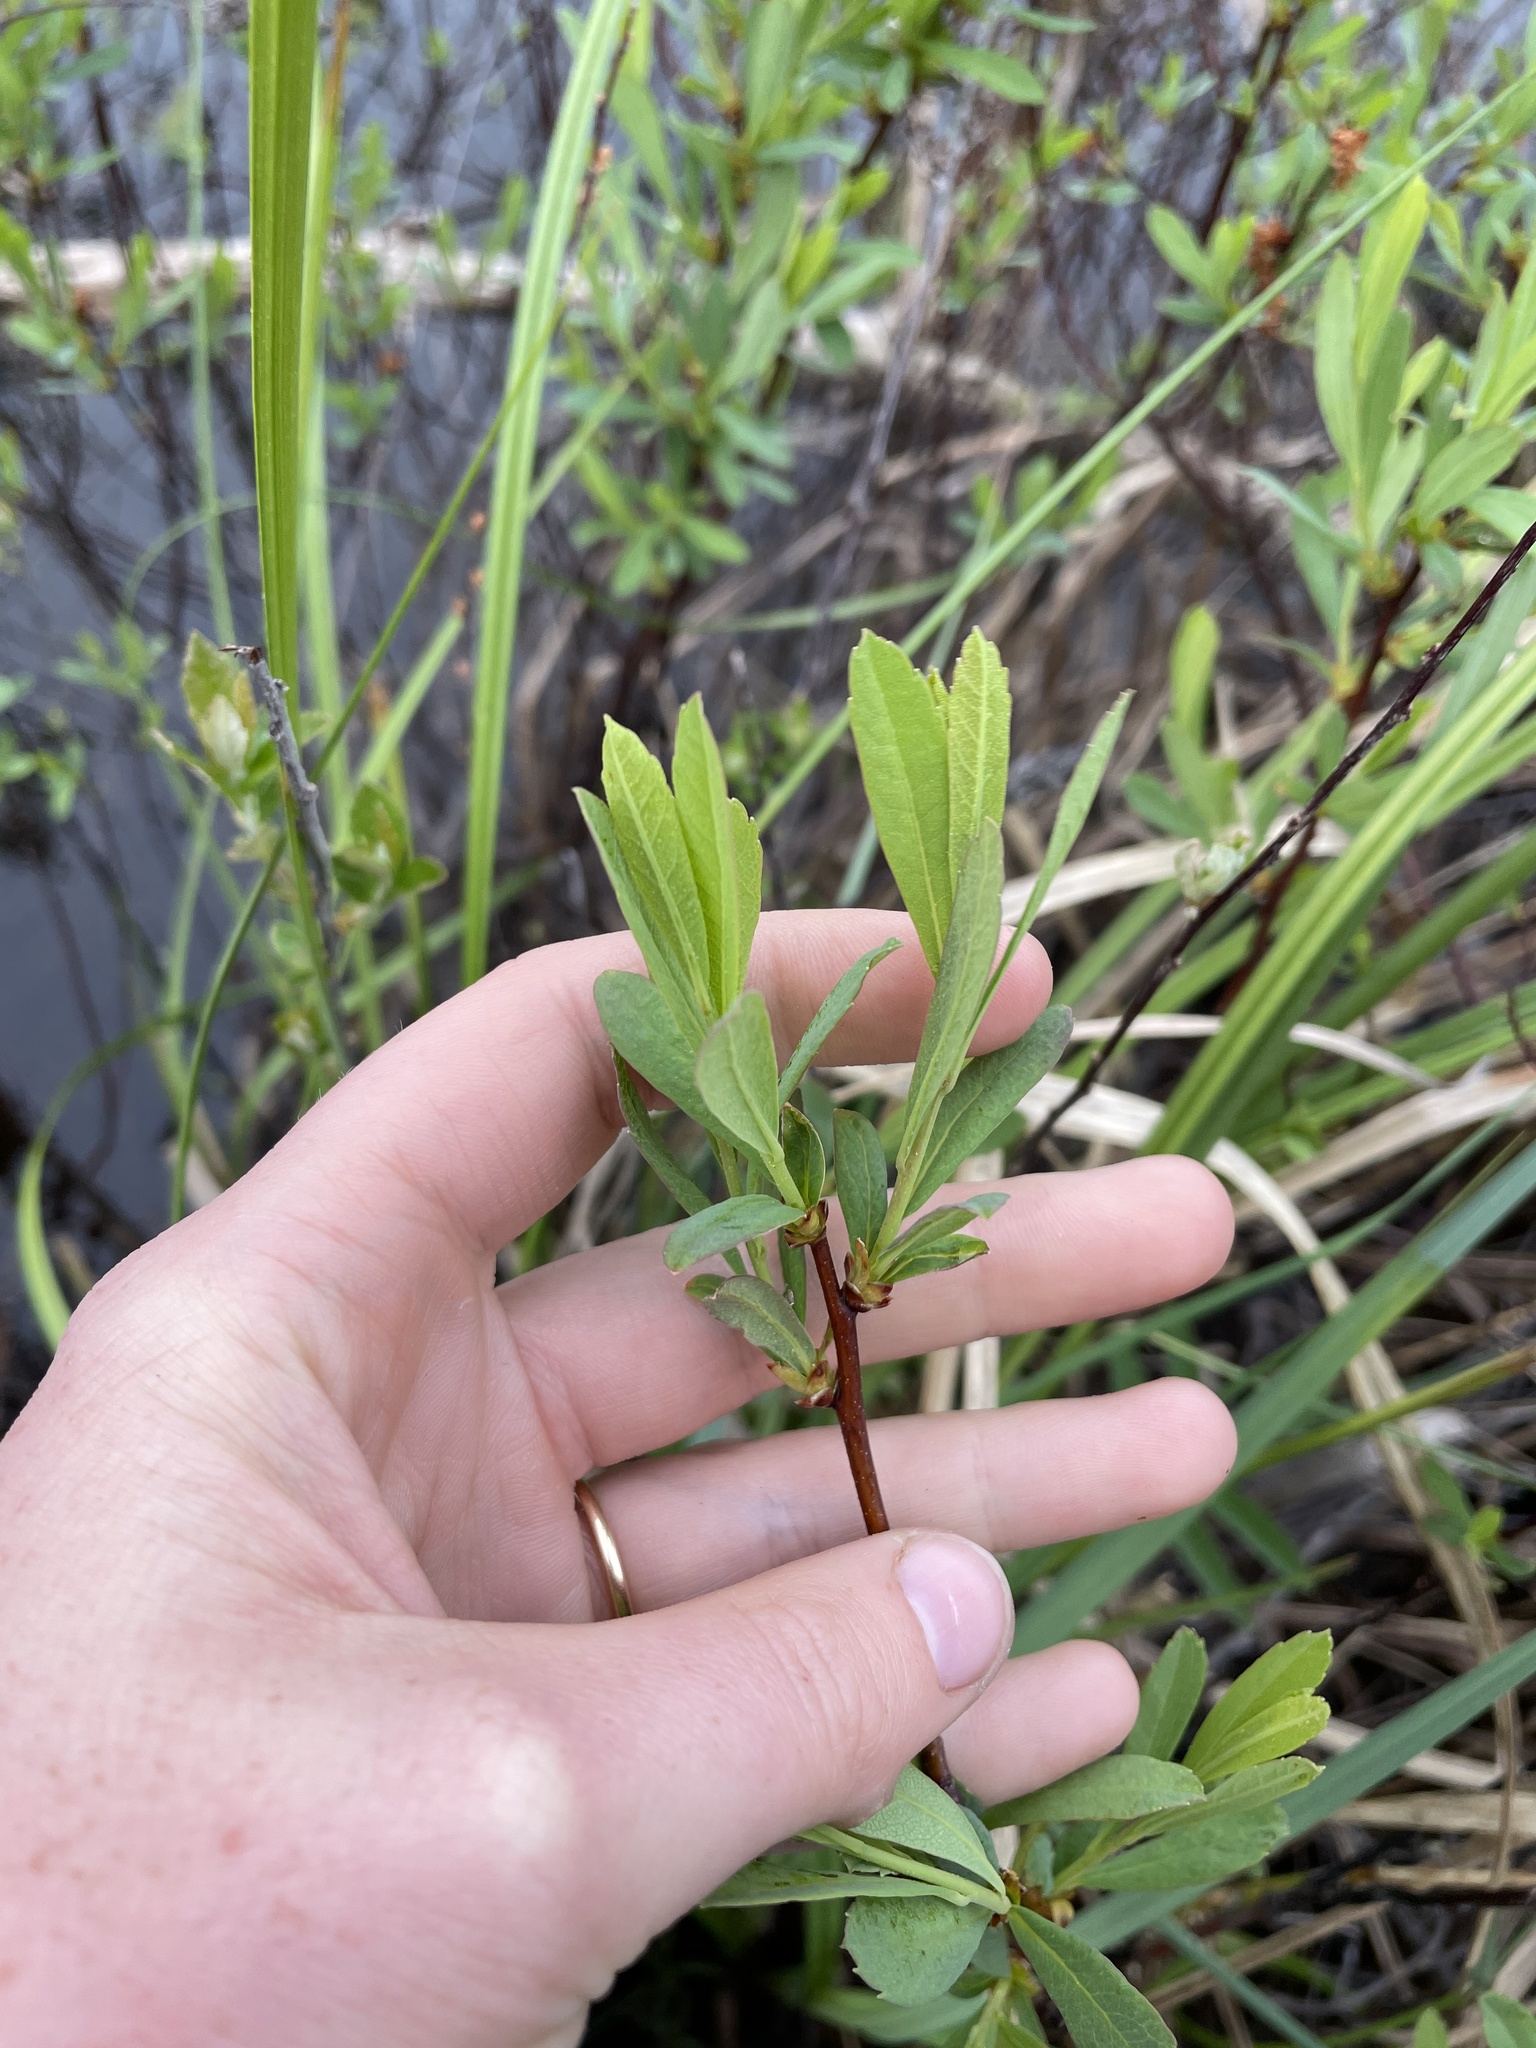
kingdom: Plantae
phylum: Tracheophyta
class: Magnoliopsida
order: Fagales
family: Myricaceae
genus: Myrica
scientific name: Myrica gale
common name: Sweet gale
